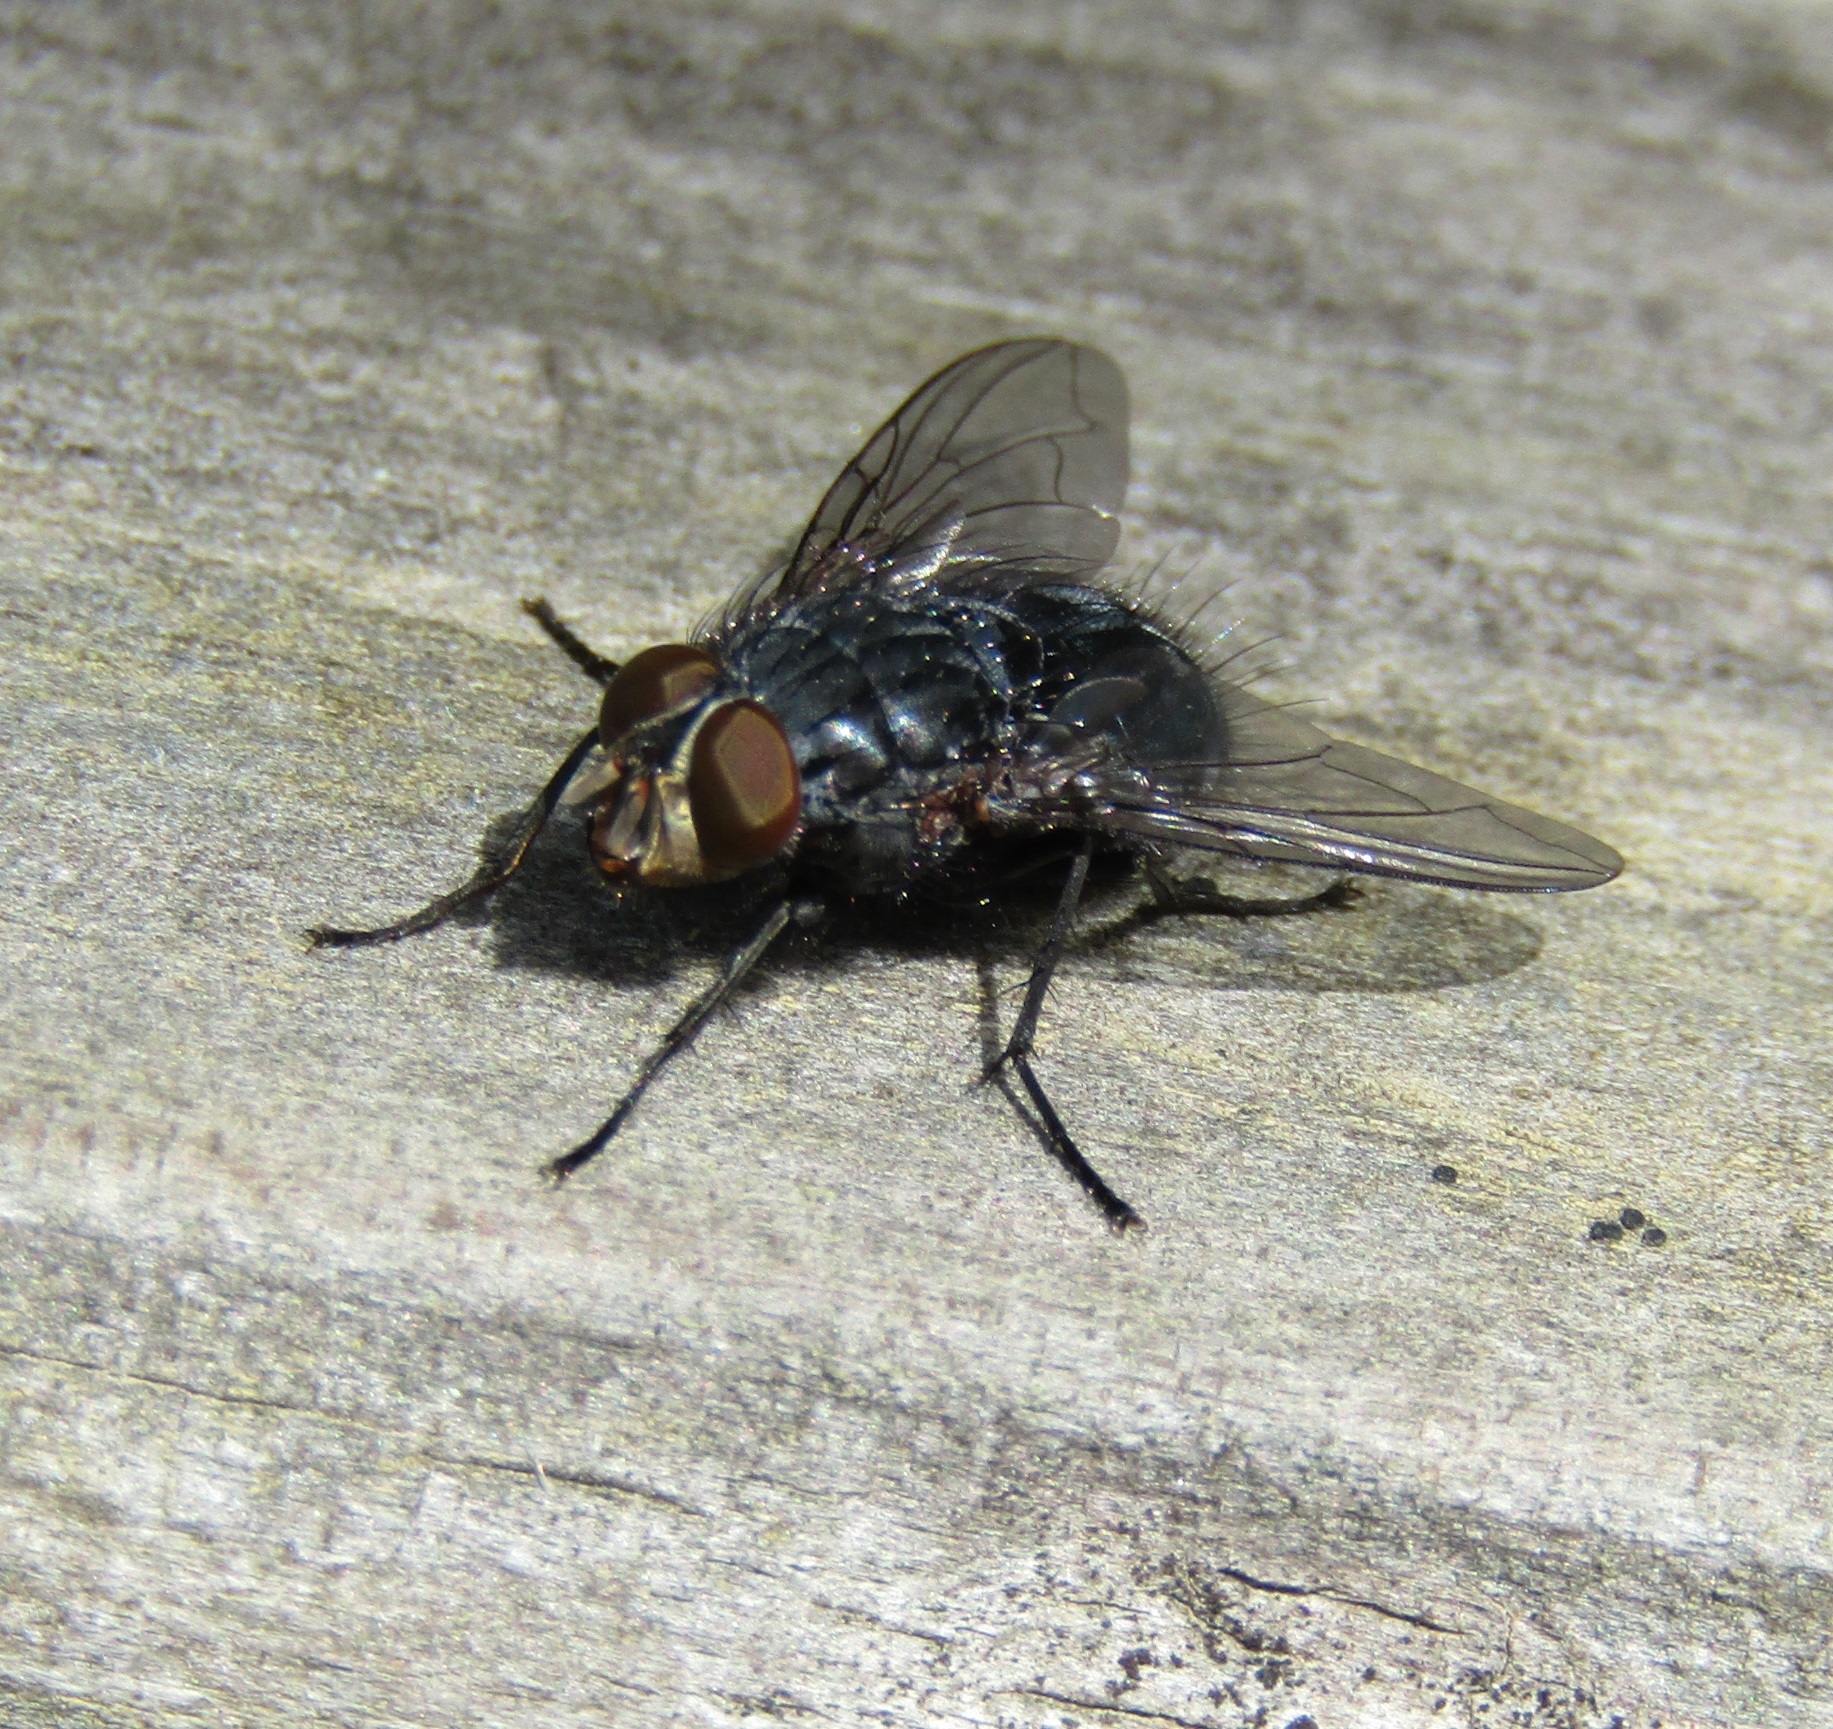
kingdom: Animalia
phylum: Arthropoda
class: Insecta
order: Diptera
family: Calliphoridae
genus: Calliphora
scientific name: Calliphora vicina
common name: Common blow flie
